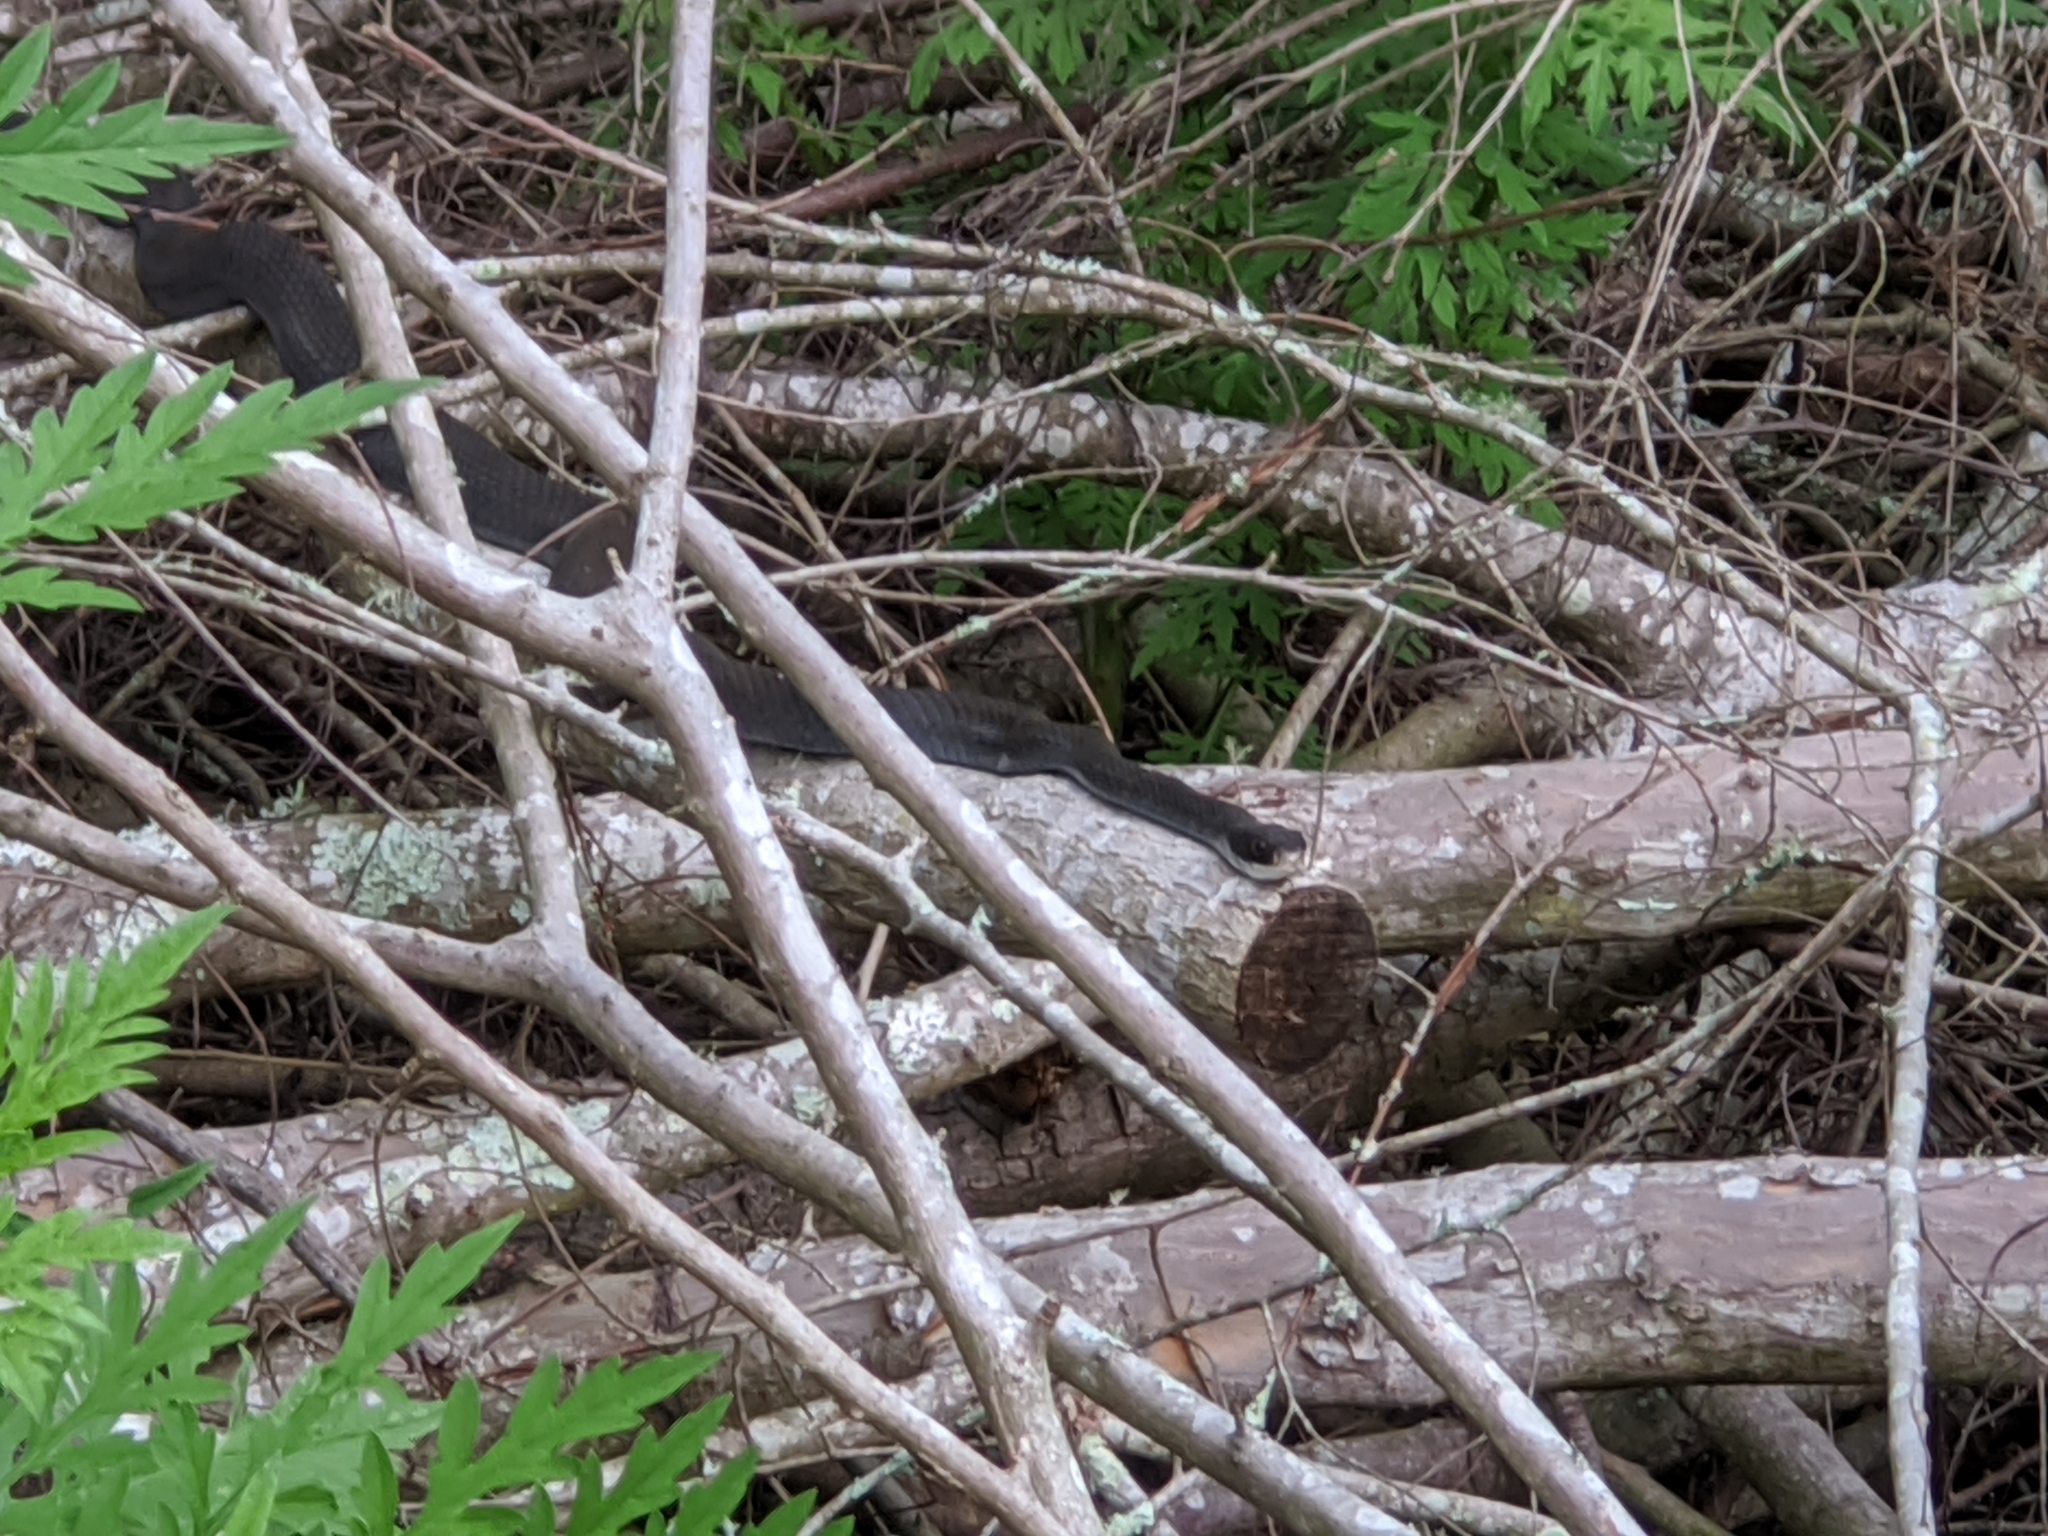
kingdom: Animalia
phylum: Chordata
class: Squamata
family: Colubridae
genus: Coluber
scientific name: Coluber constrictor
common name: Eastern racer
